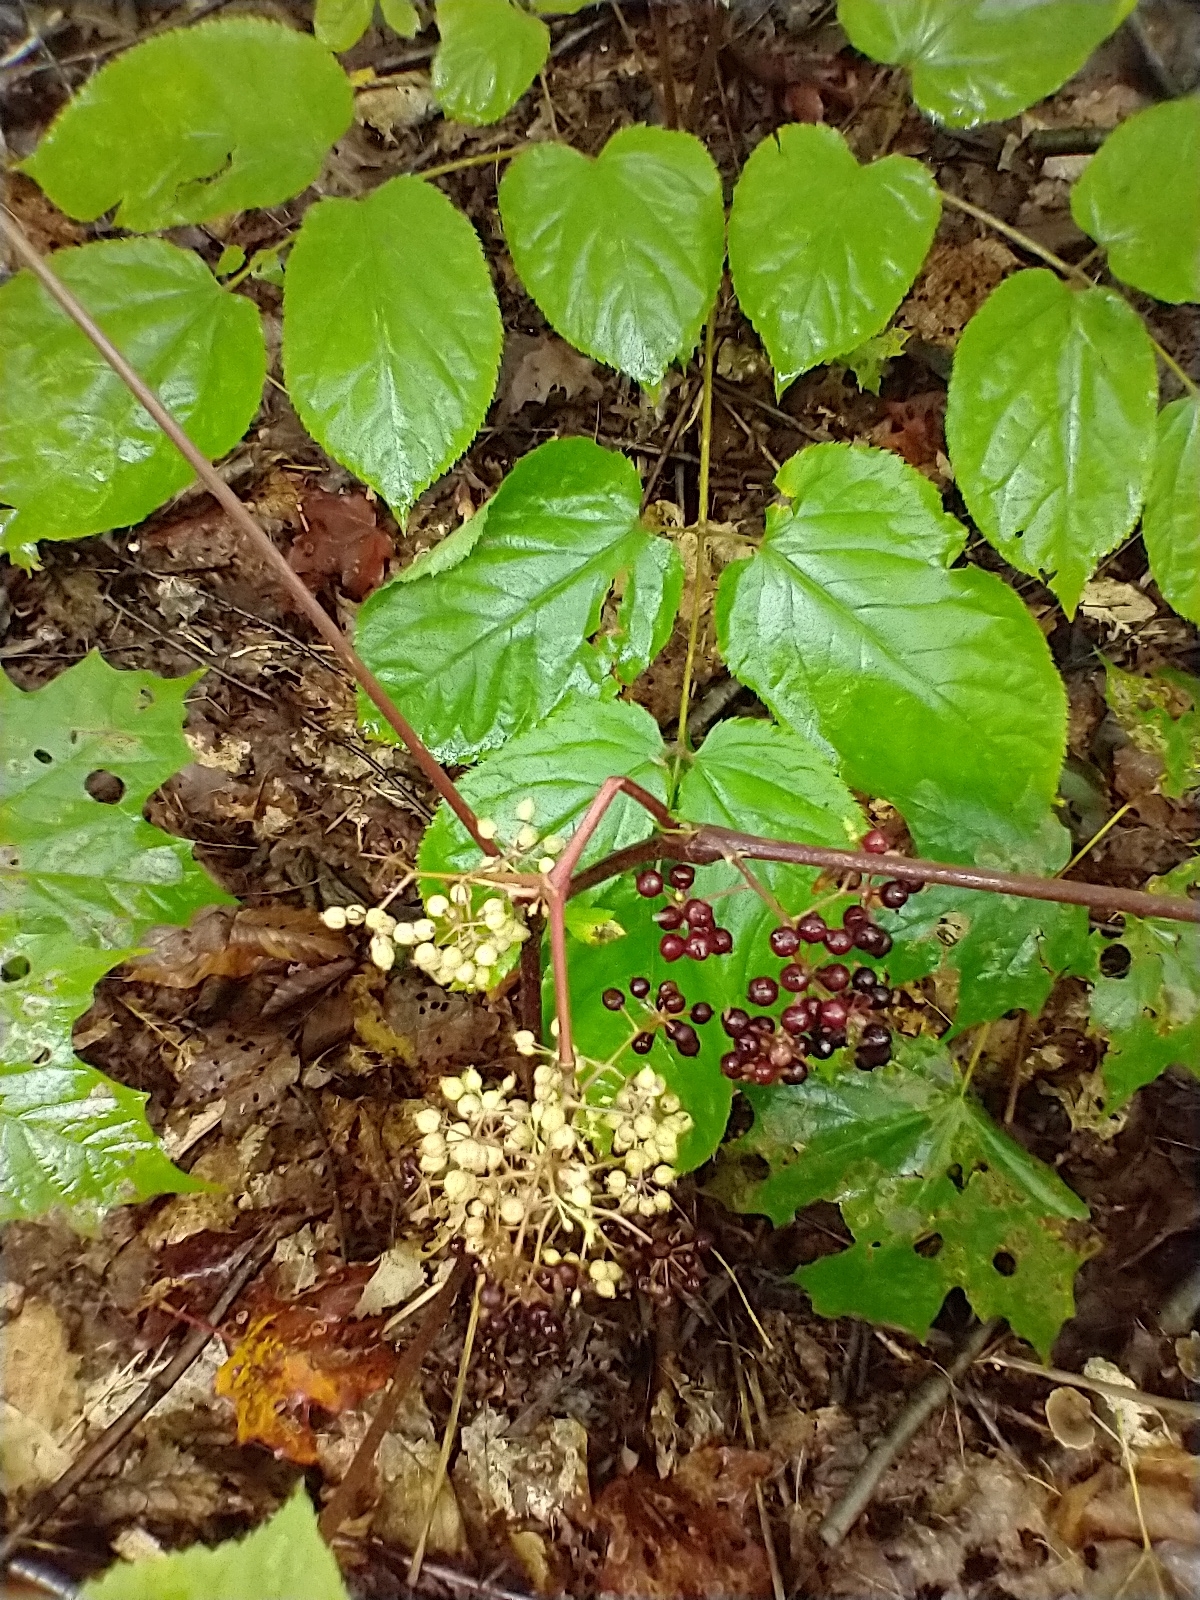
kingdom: Plantae
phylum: Tracheophyta
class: Magnoliopsida
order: Apiales
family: Araliaceae
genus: Aralia
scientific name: Aralia racemosa
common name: American-spikenard
